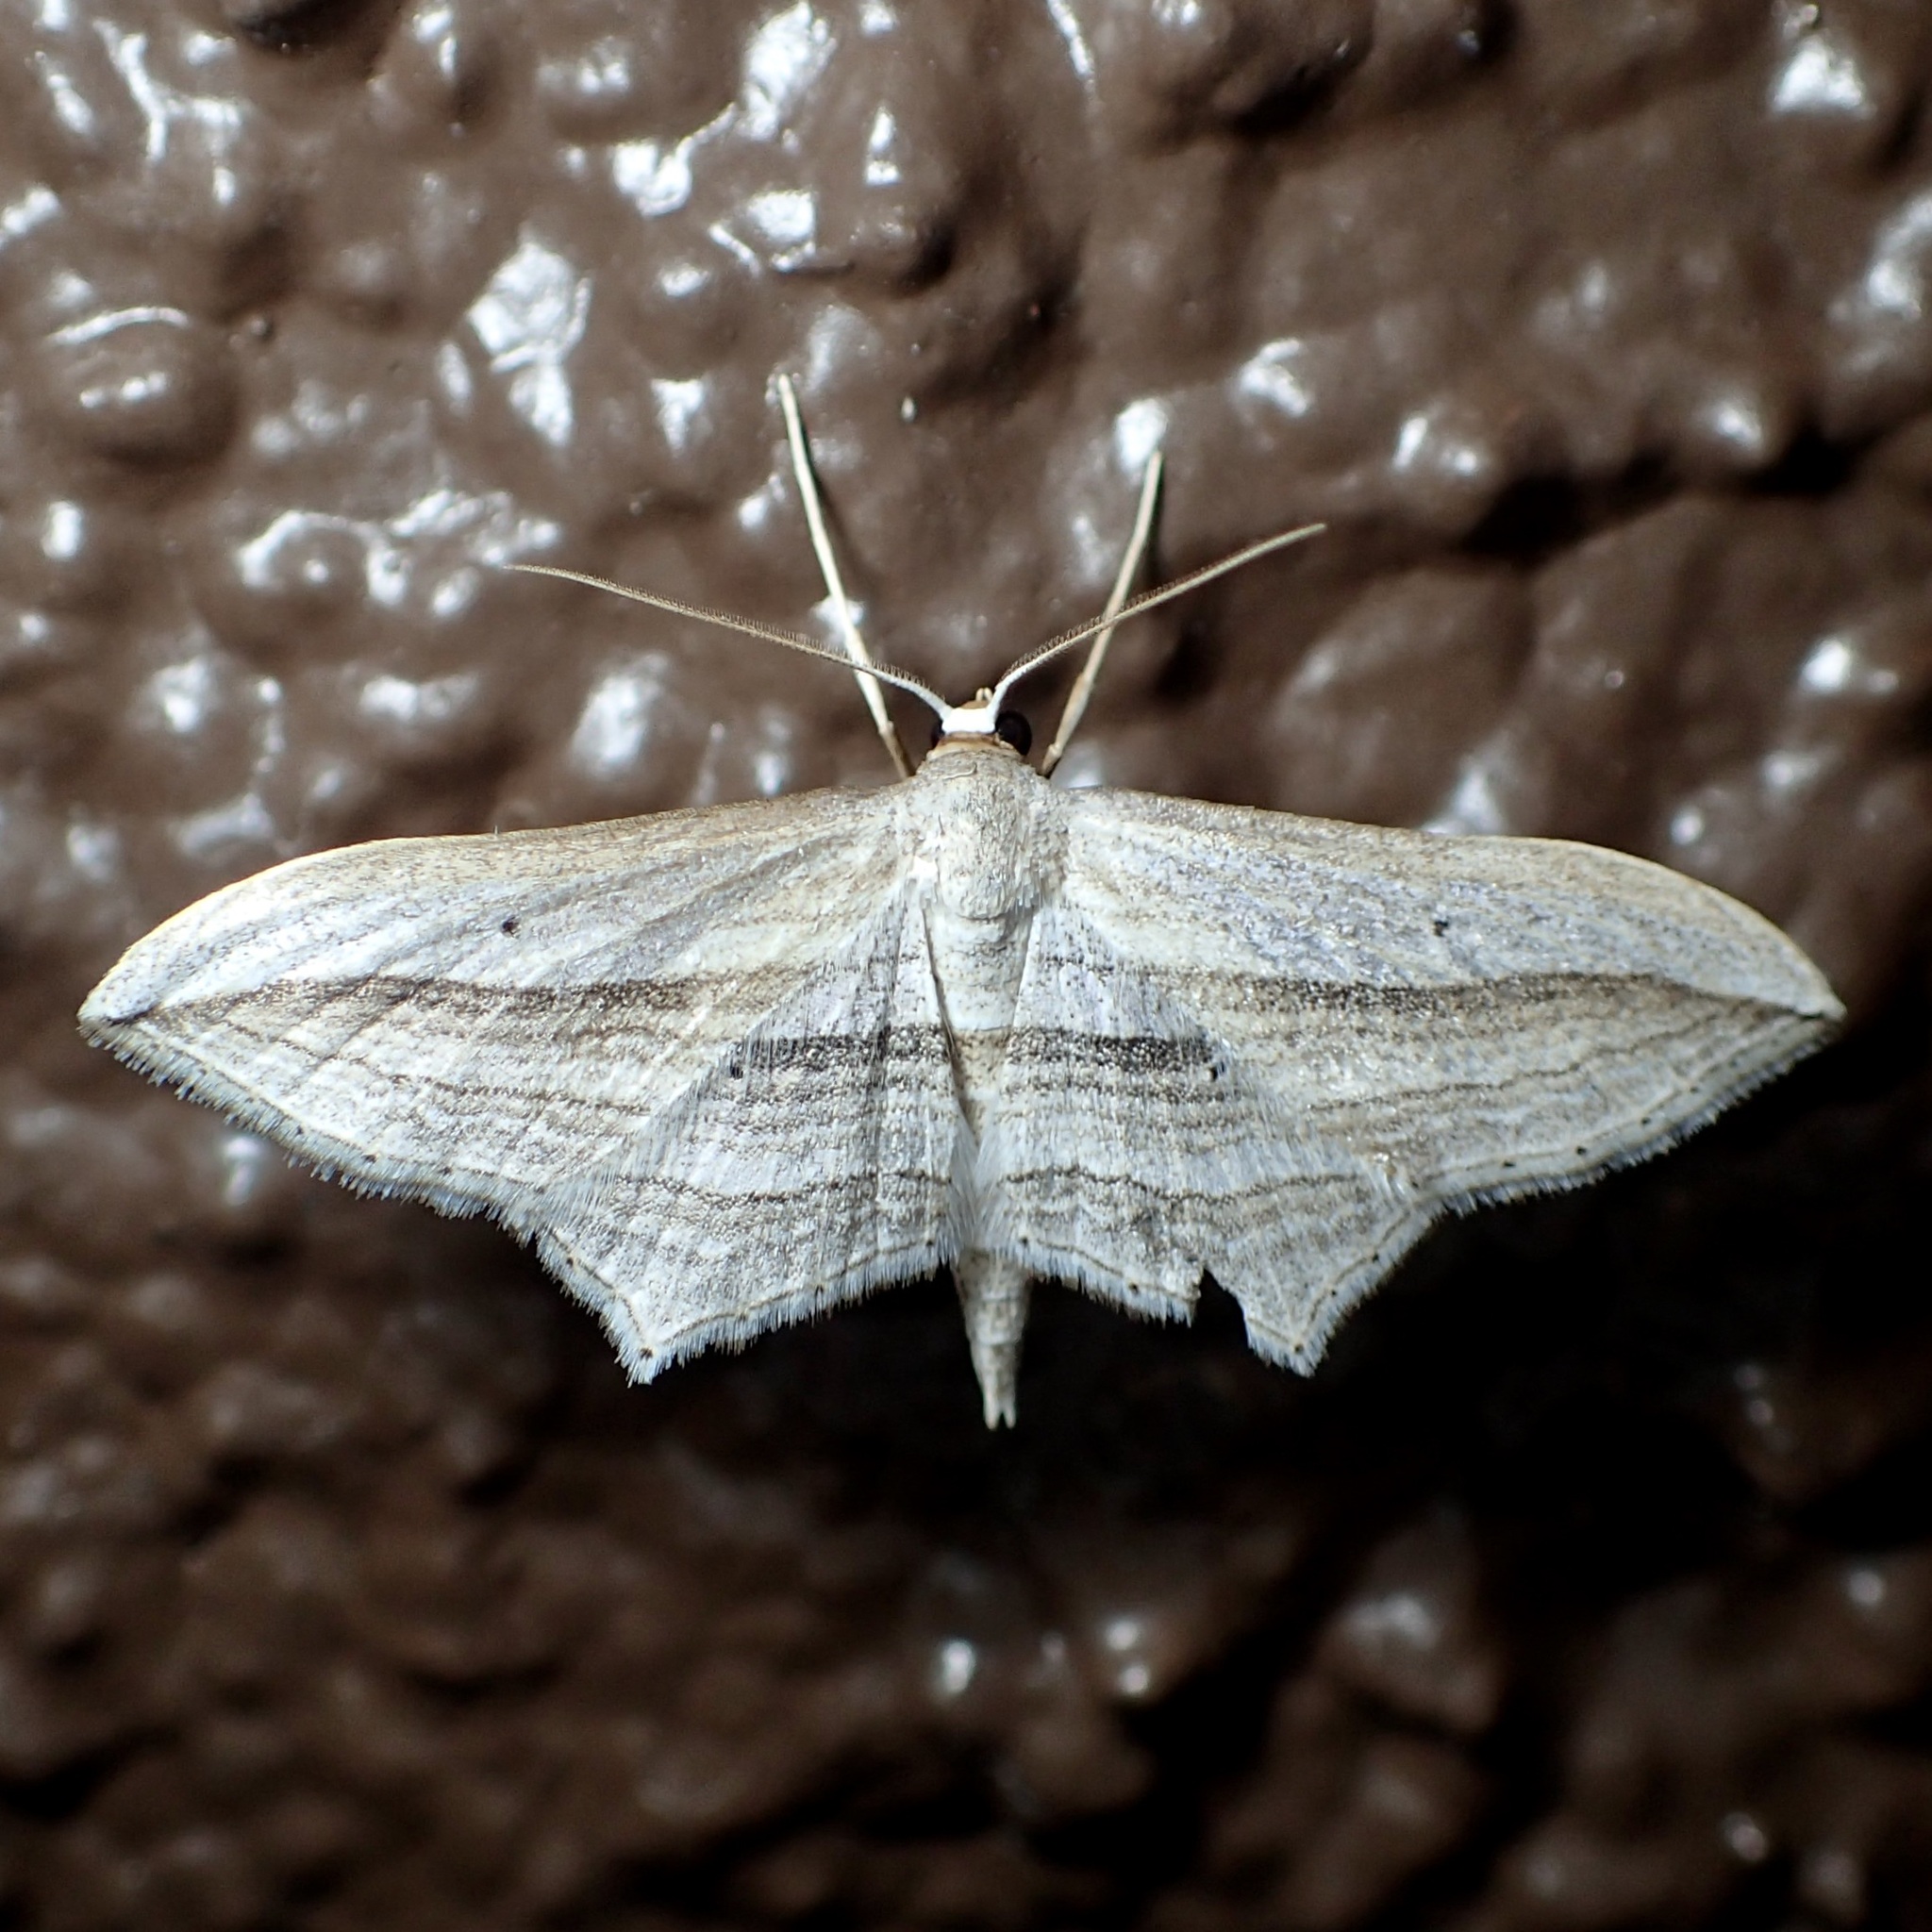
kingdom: Animalia
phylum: Arthropoda
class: Insecta
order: Lepidoptera
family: Geometridae
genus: Arcobara
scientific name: Arcobara multilineata
